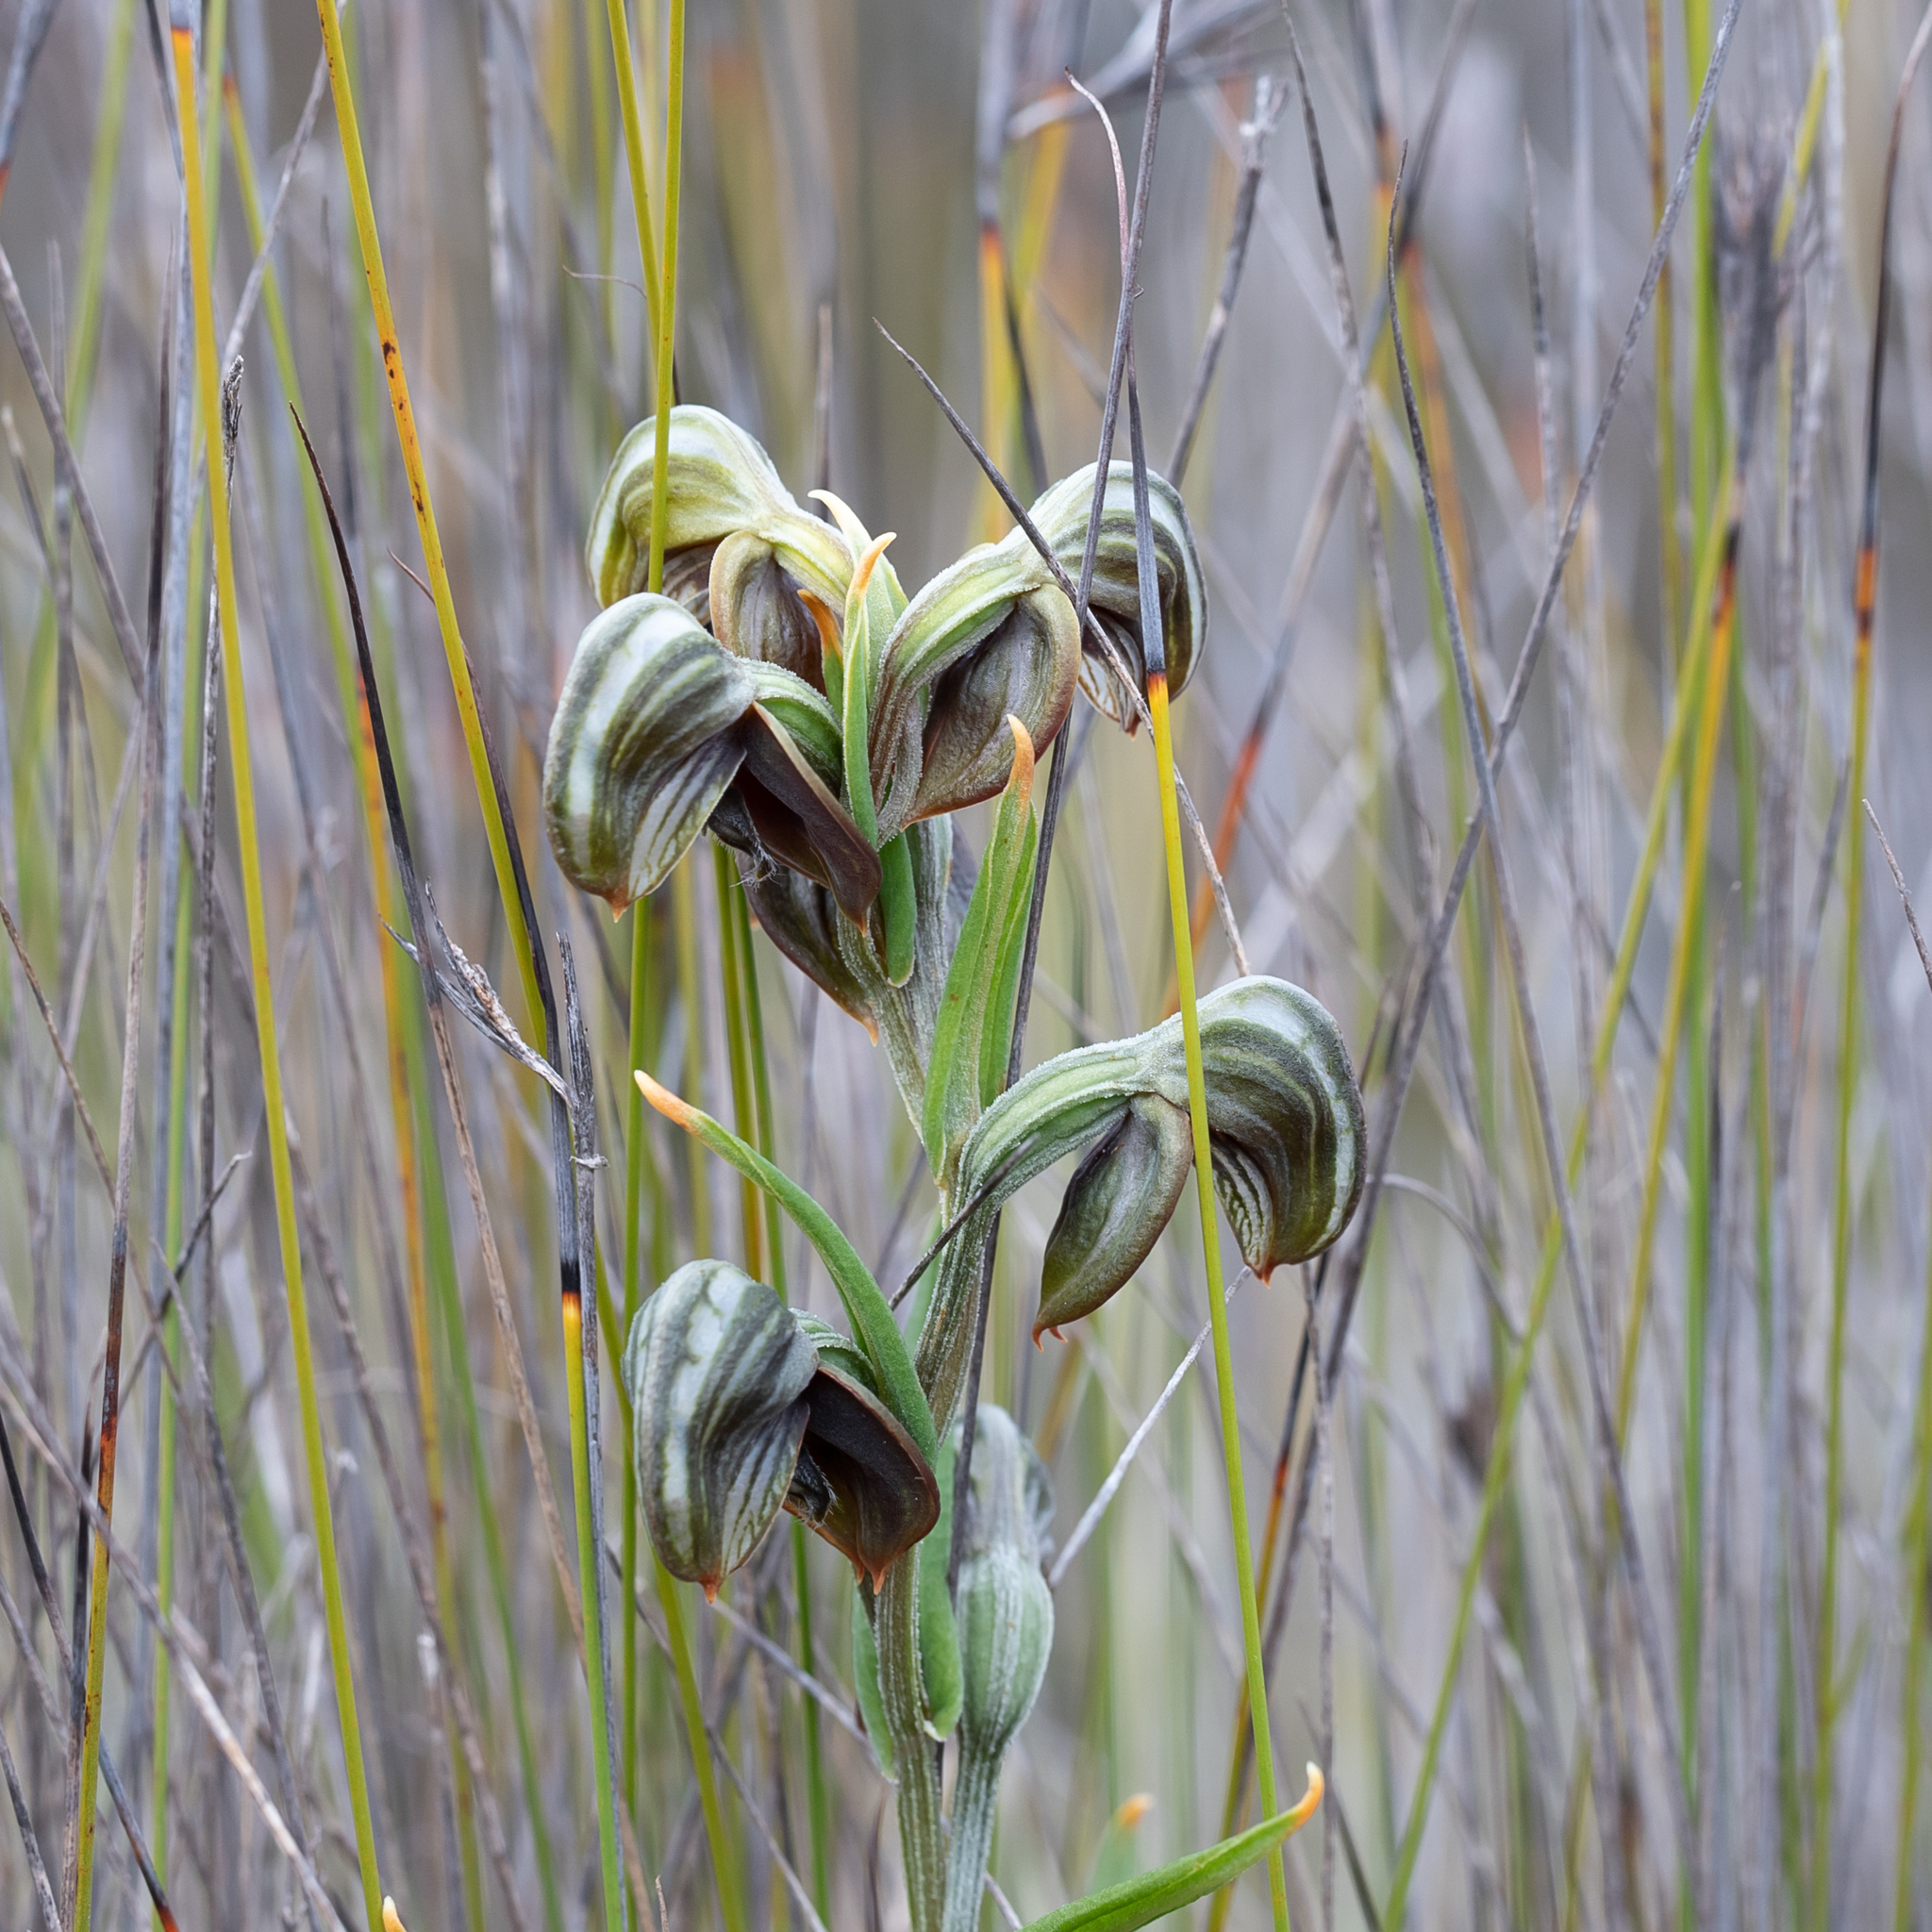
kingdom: Plantae
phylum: Tracheophyta
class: Liliopsida
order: Asparagales
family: Orchidaceae
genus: Pterostylis
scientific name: Pterostylis sanguinea
